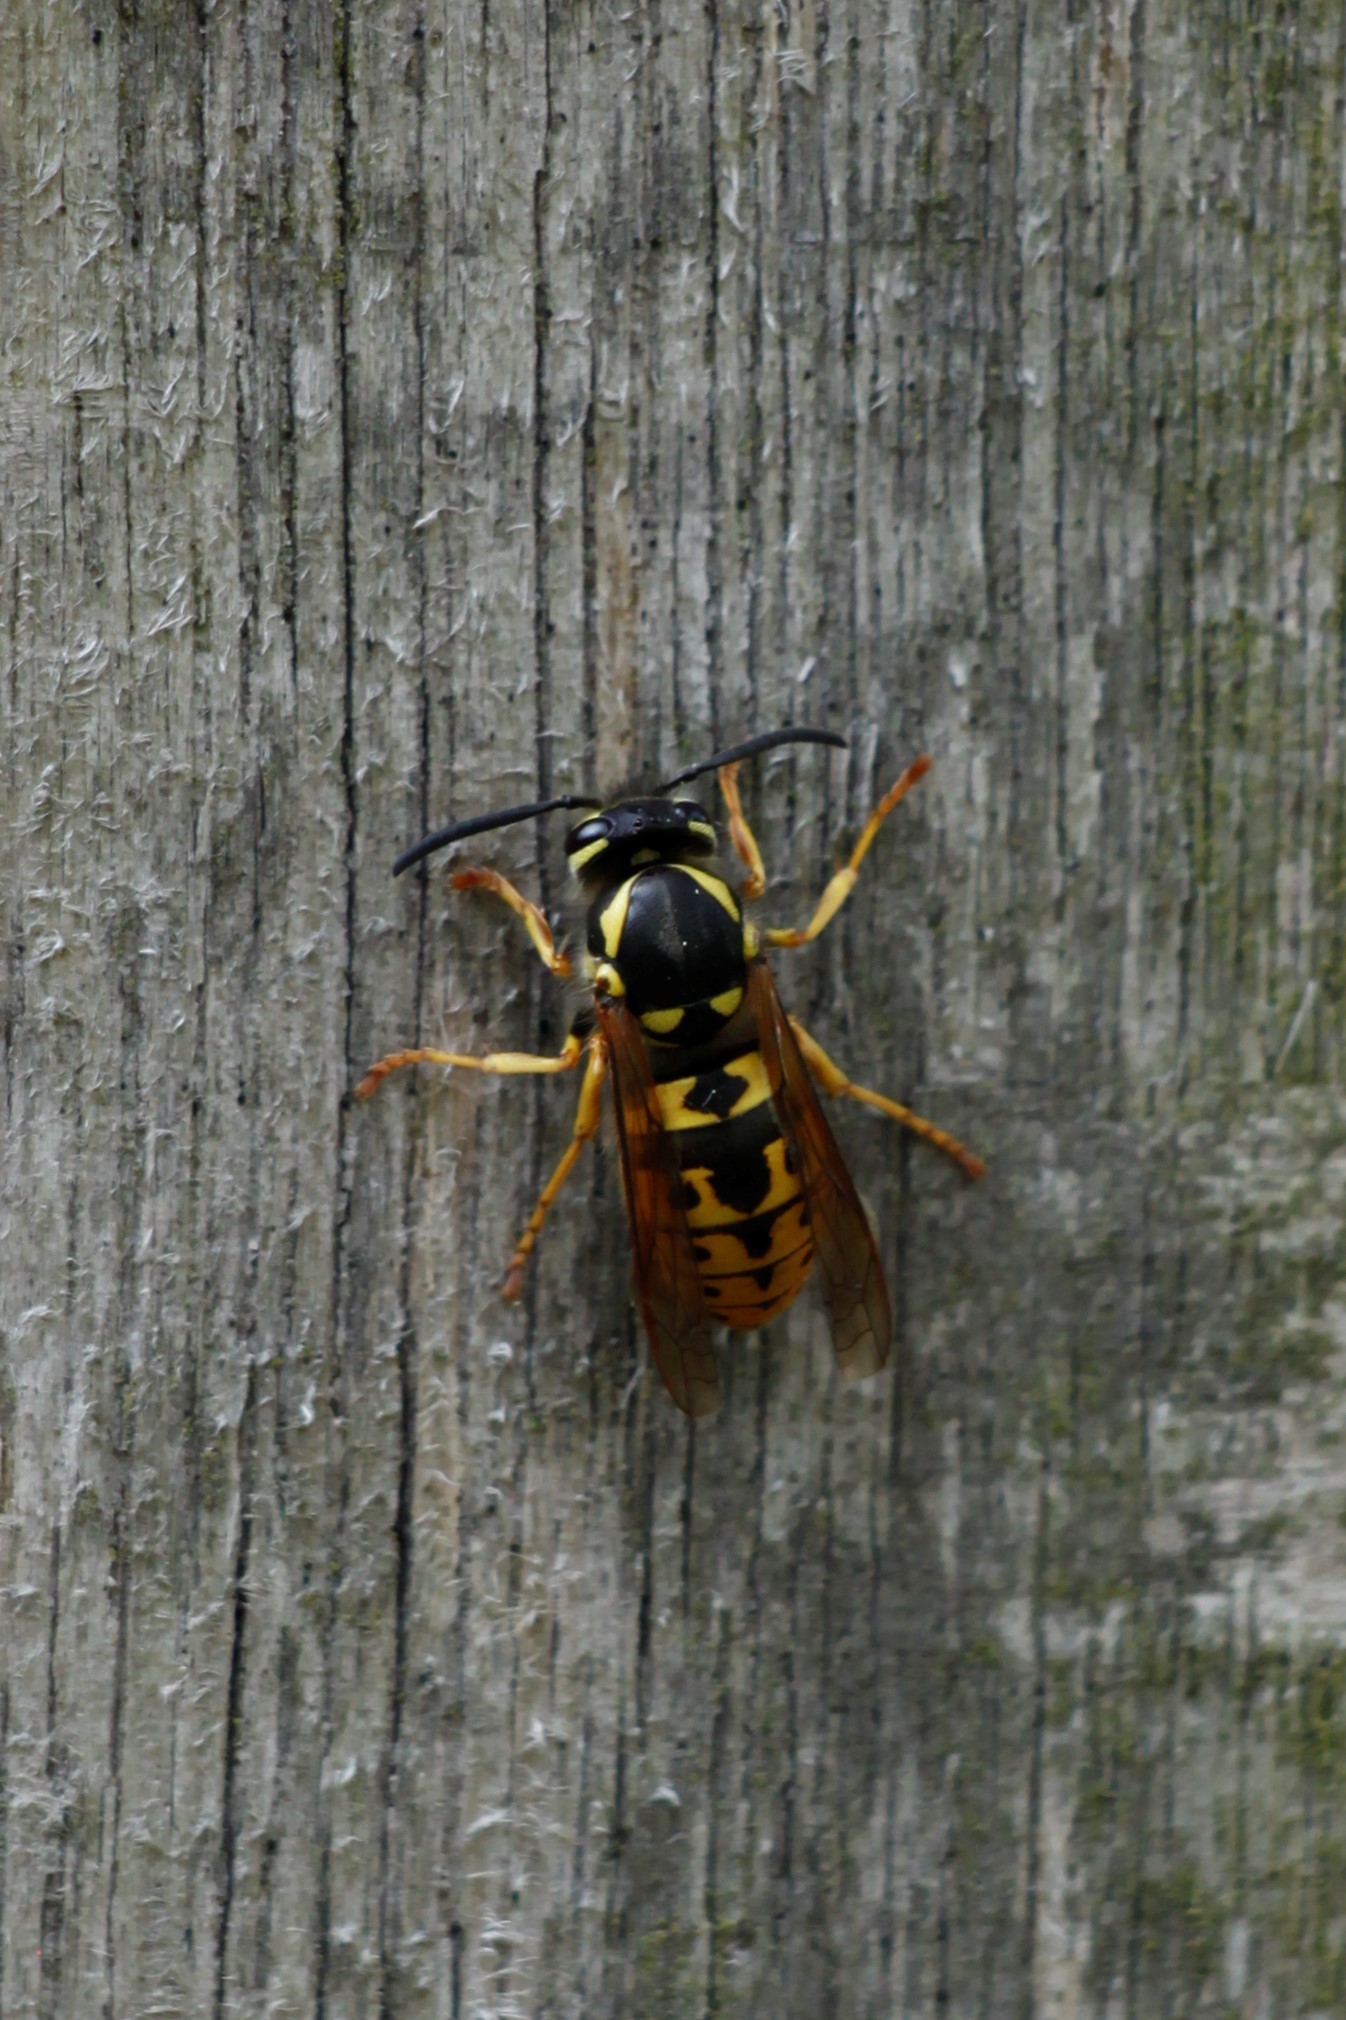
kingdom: Animalia
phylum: Arthropoda
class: Insecta
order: Hymenoptera
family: Vespidae
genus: Vespula
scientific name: Vespula germanica
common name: German wasp
